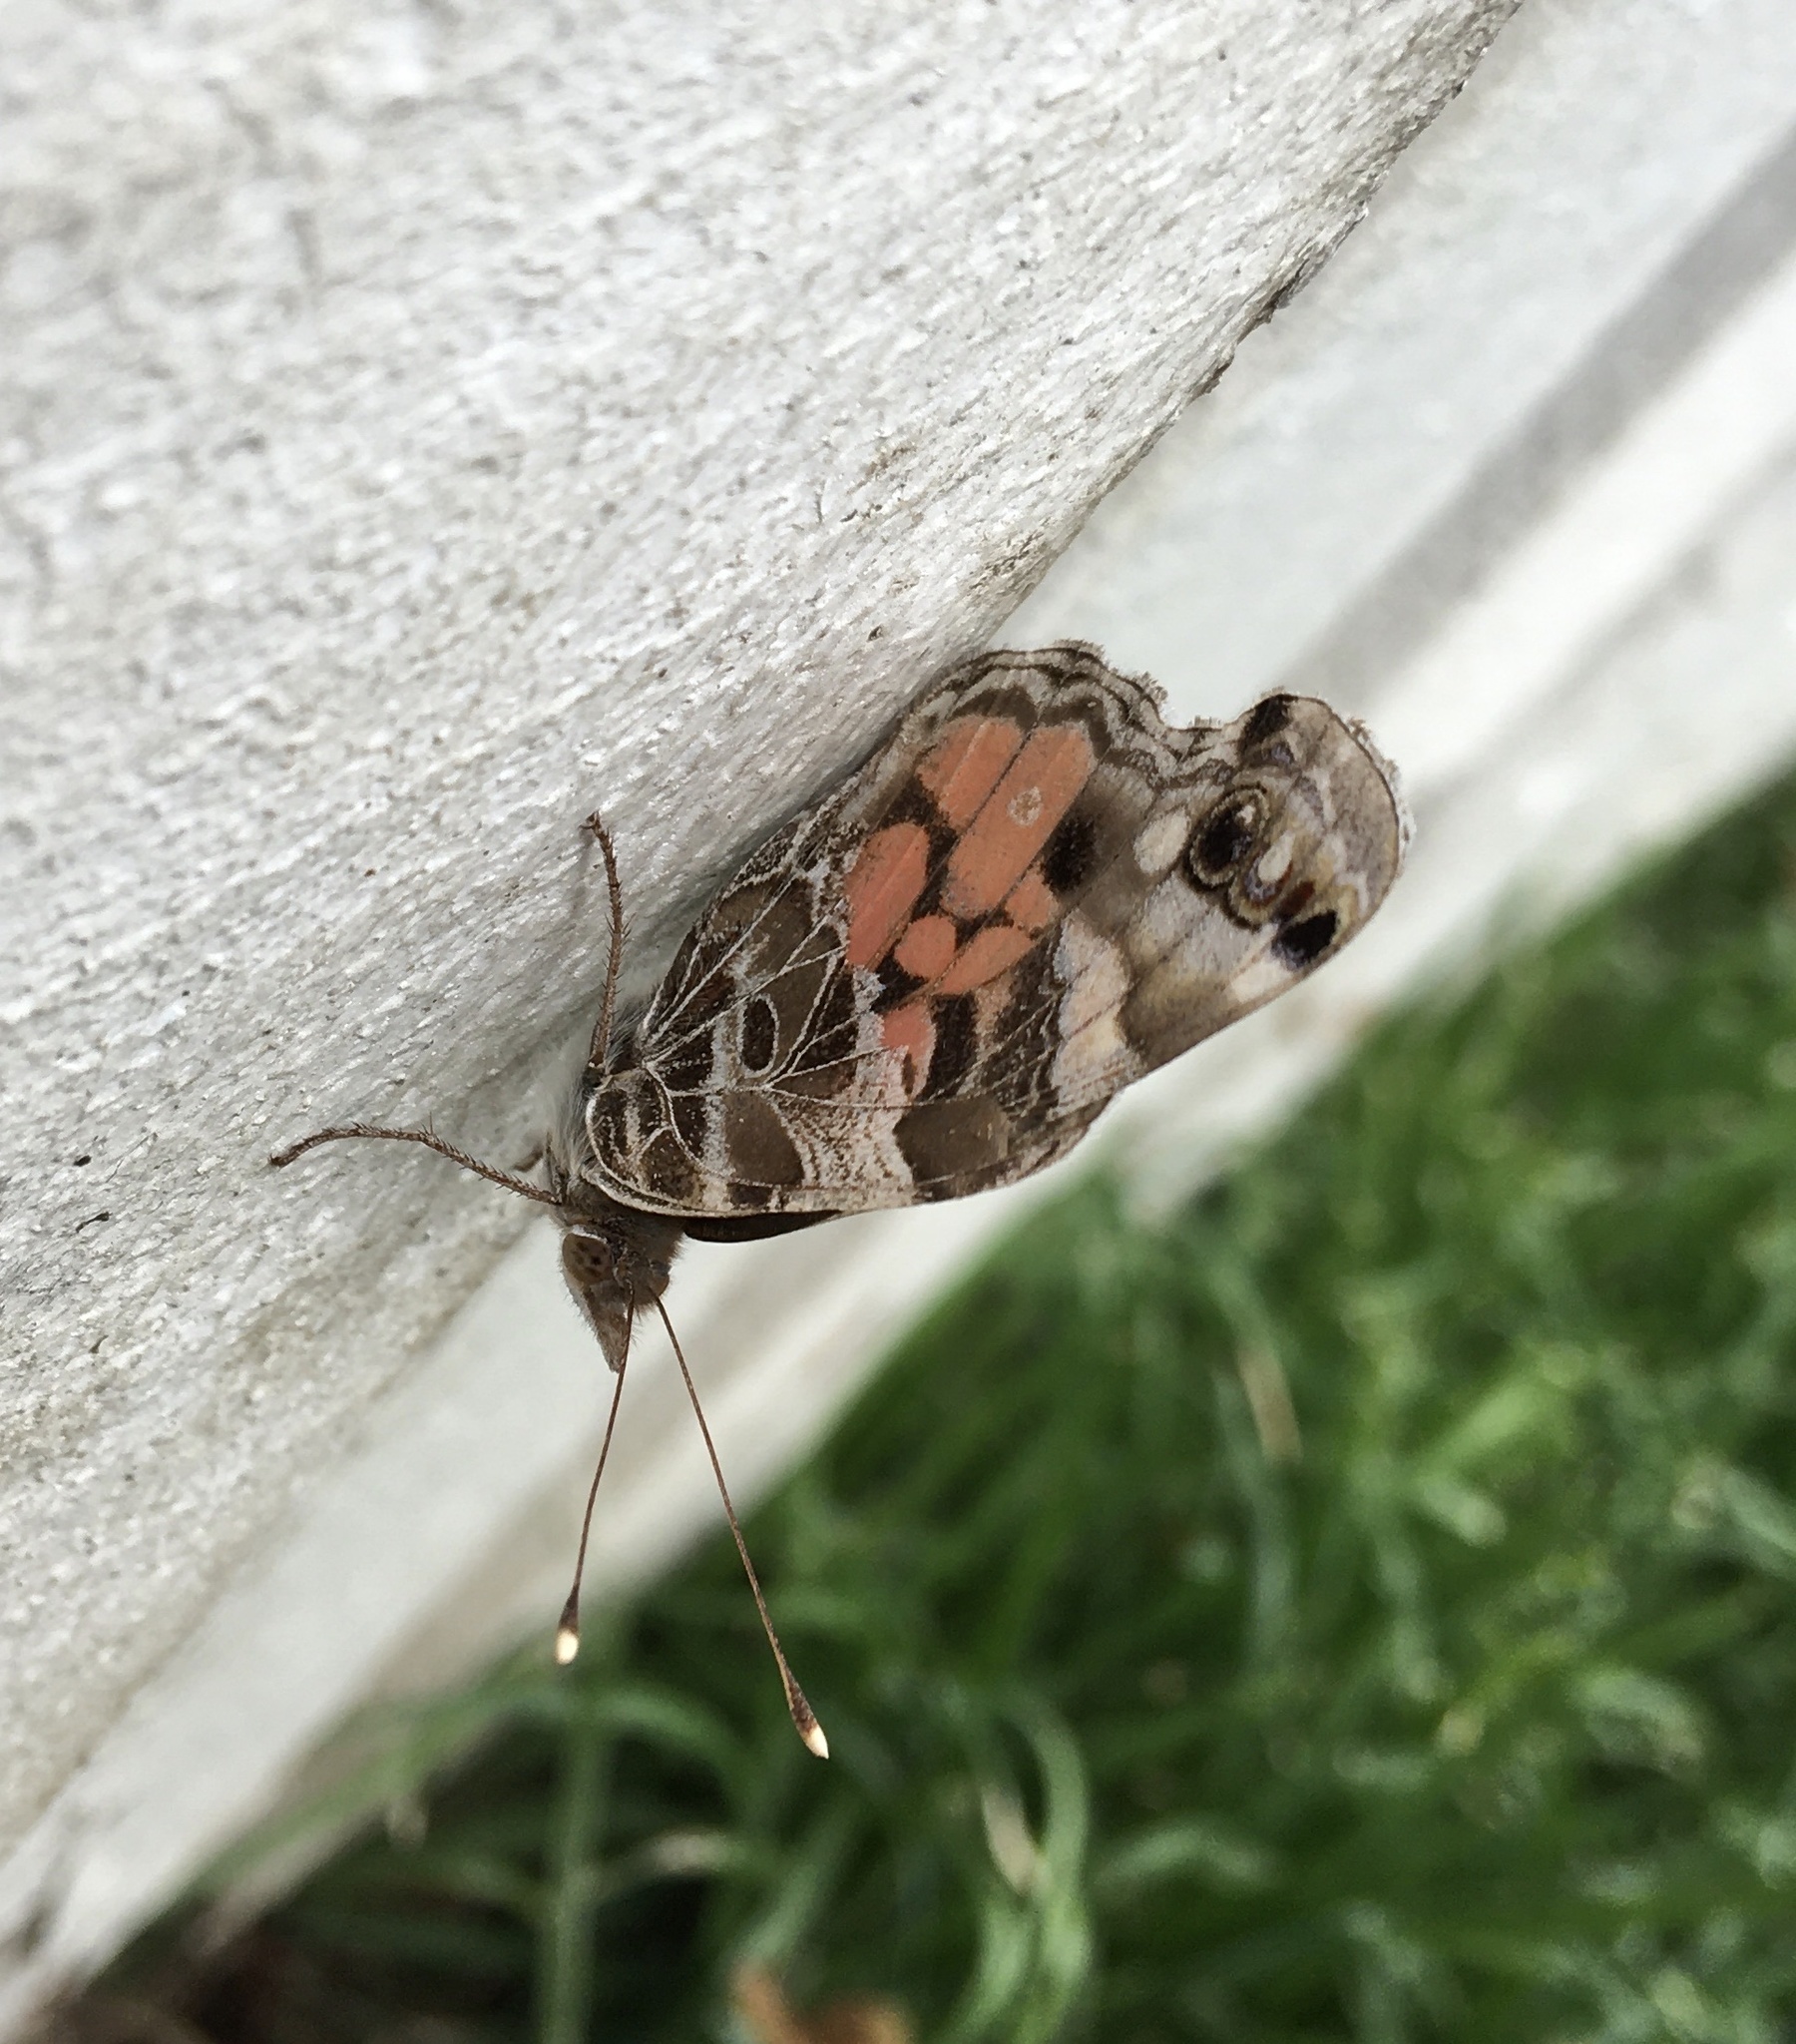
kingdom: Animalia
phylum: Arthropoda
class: Insecta
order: Lepidoptera
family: Nymphalidae
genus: Vanessa
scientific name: Vanessa virginiensis
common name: American lady
